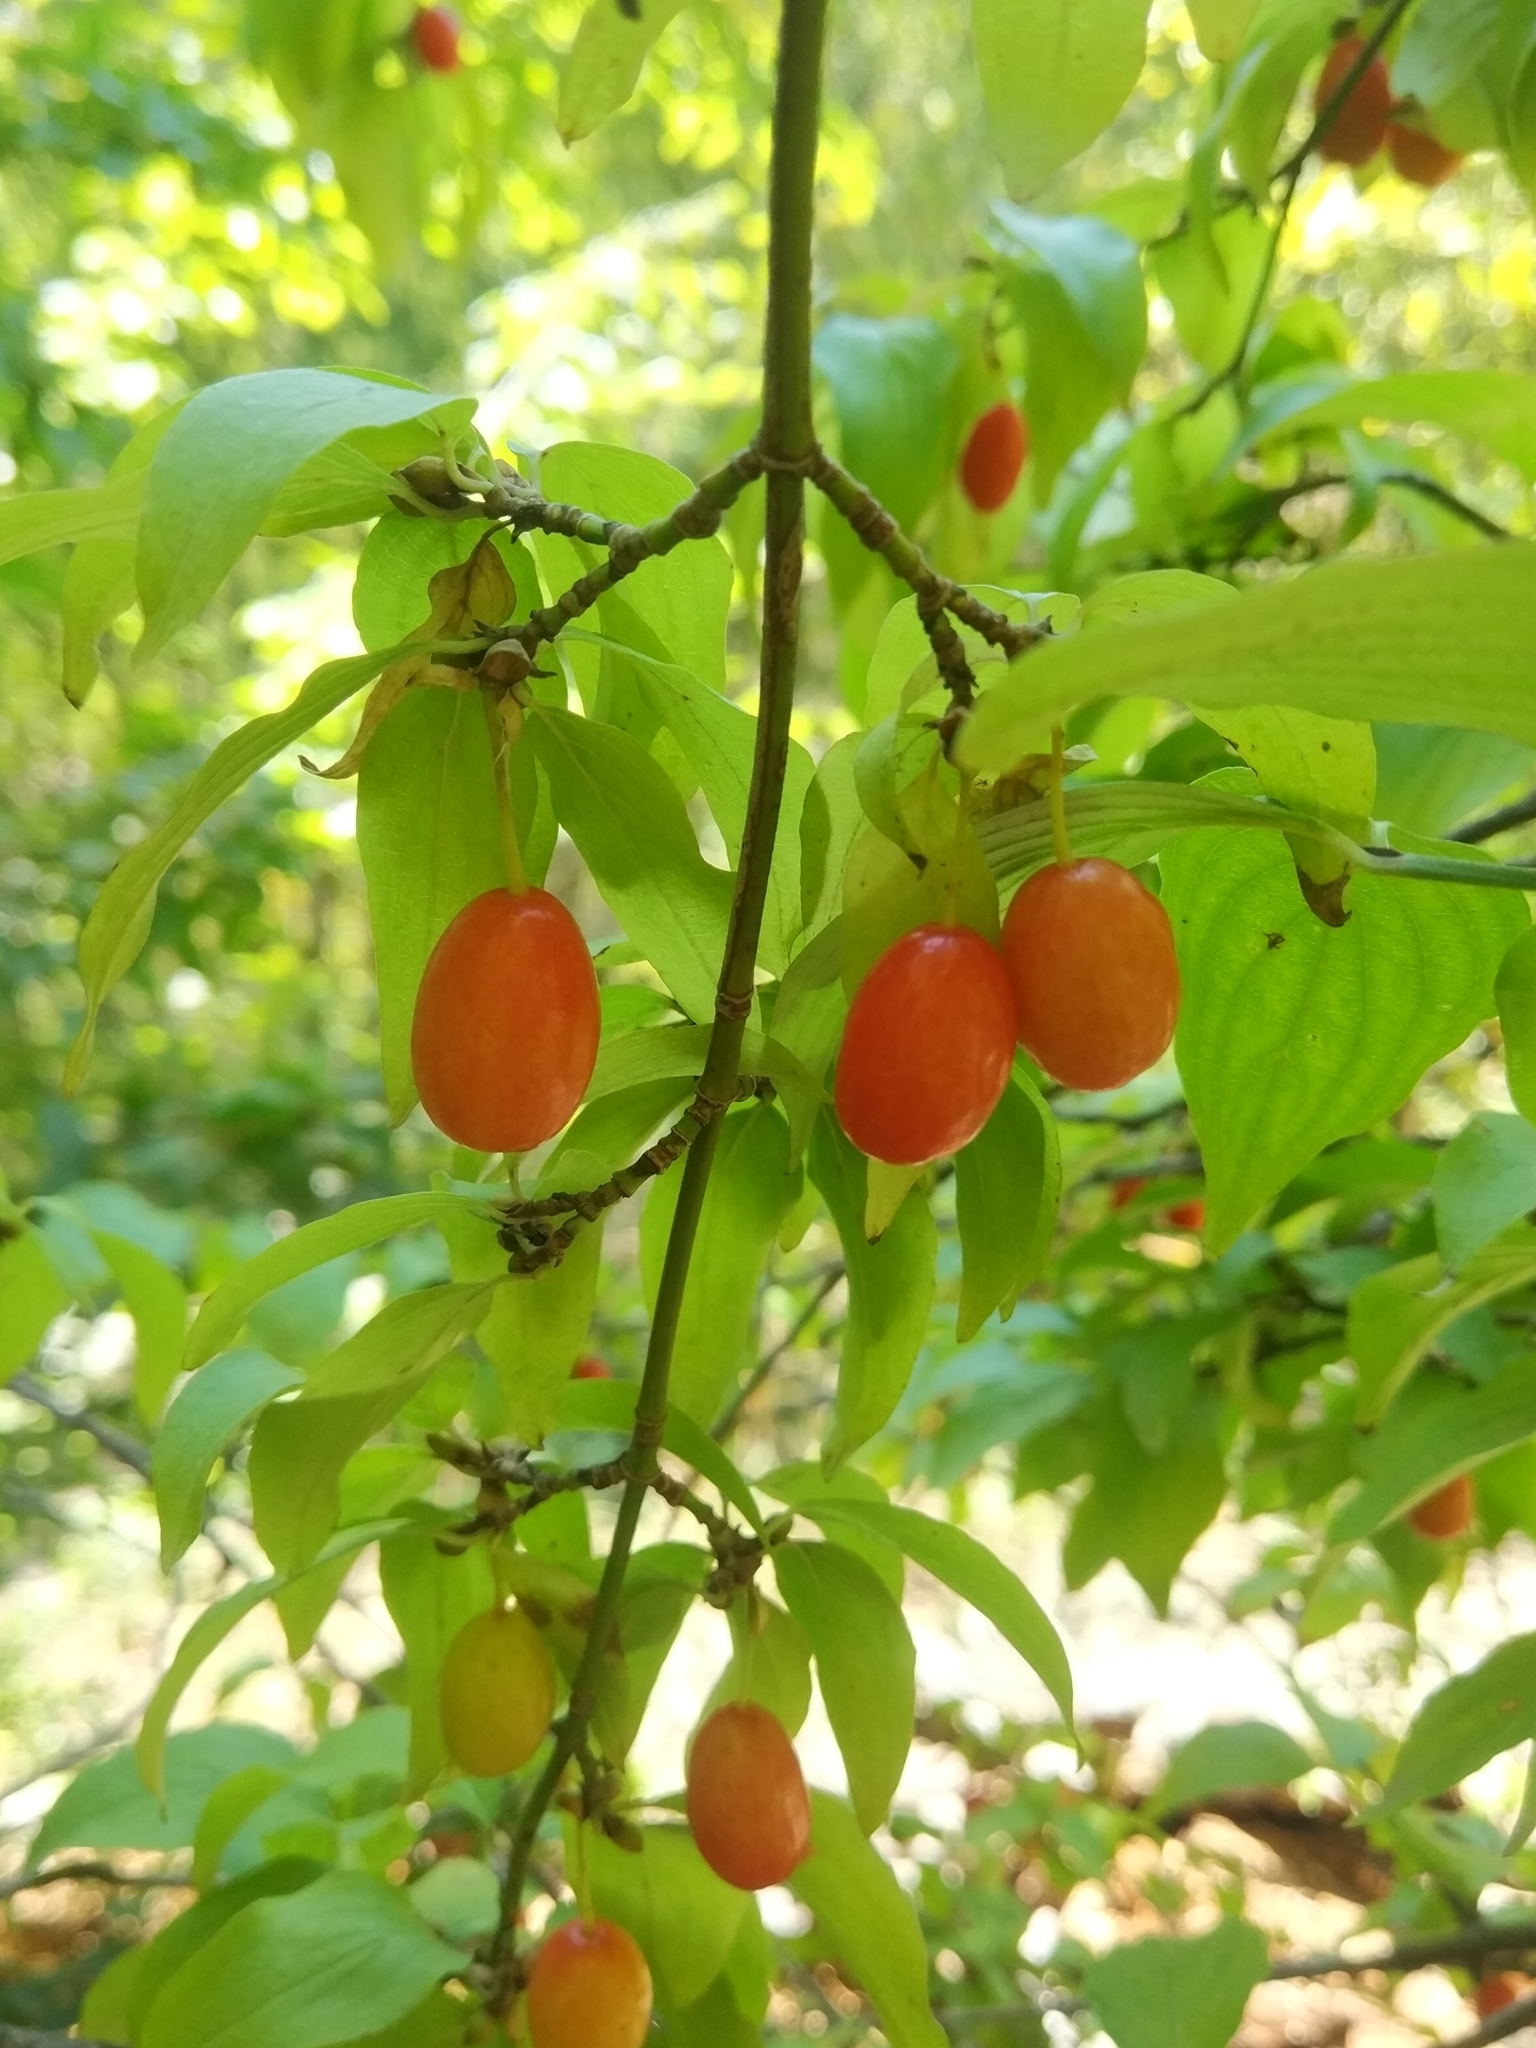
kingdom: Plantae
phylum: Tracheophyta
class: Magnoliopsida
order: Cornales
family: Cornaceae
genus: Cornus
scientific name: Cornus mas
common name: Cornelian-cherry
